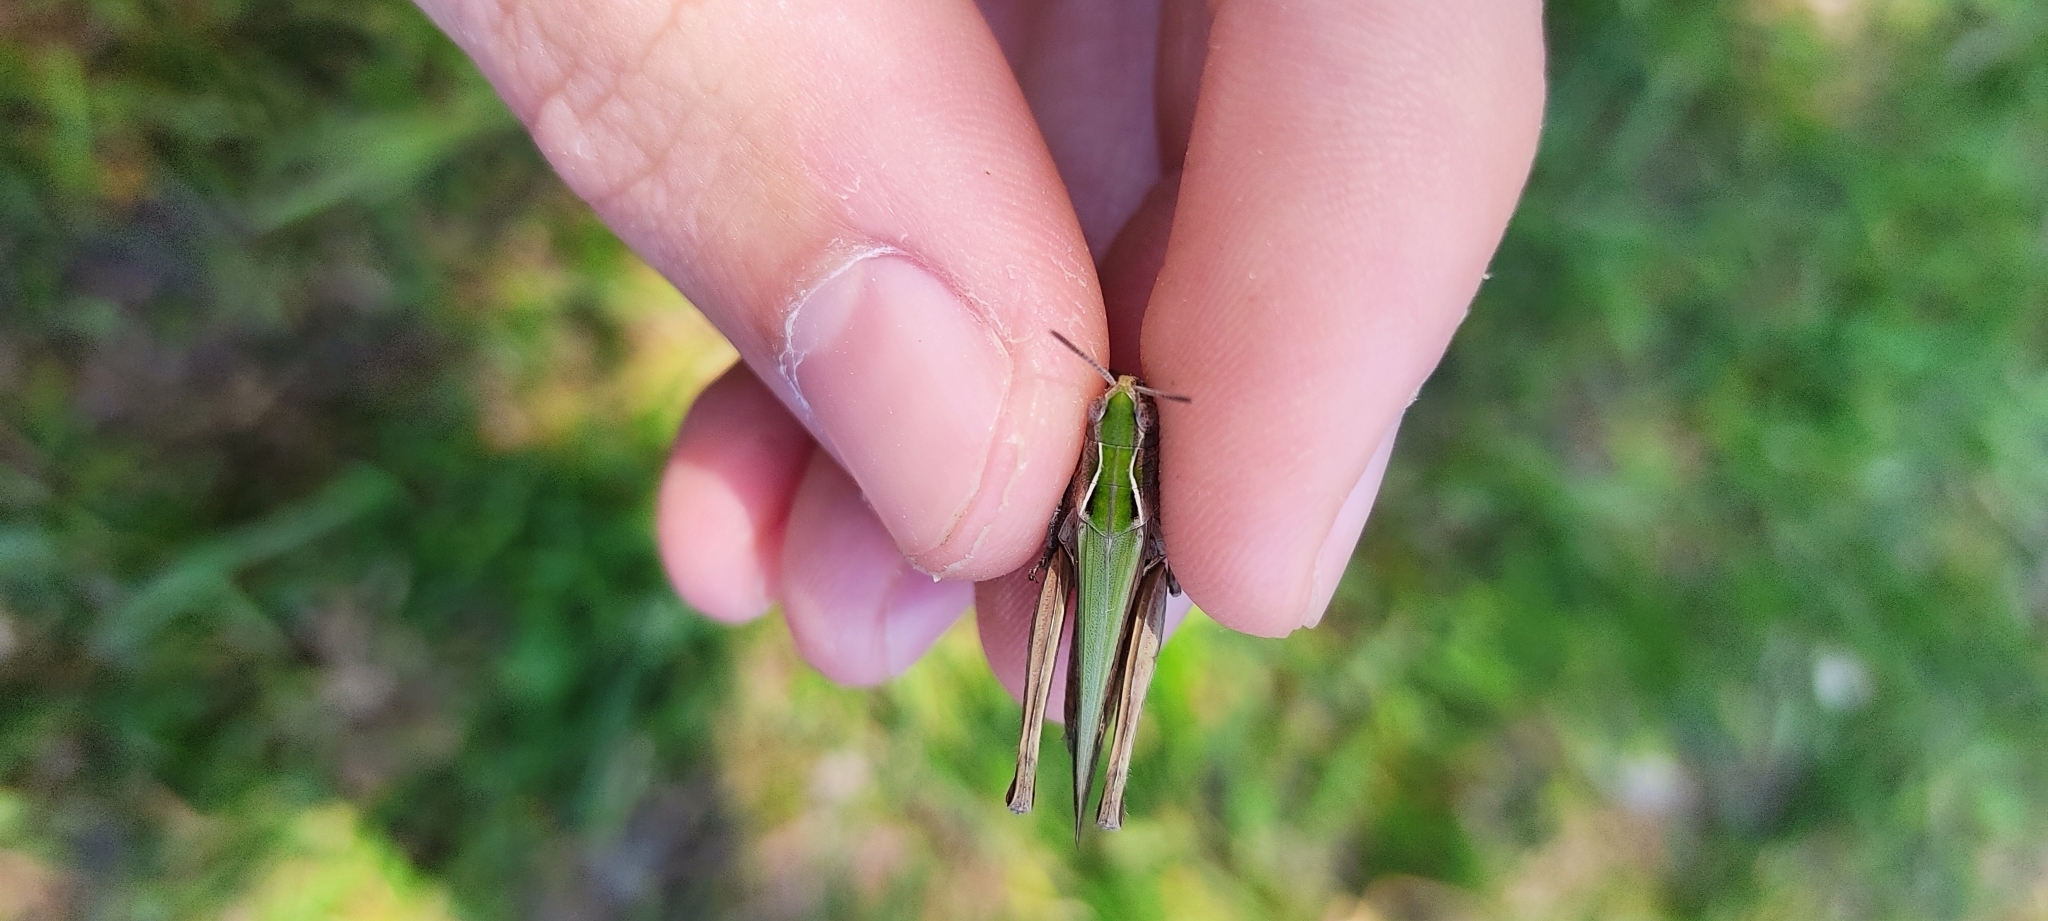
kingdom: Animalia
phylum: Arthropoda
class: Insecta
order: Orthoptera
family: Acrididae
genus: Omocestus
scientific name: Omocestus rufipes
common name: Woodland grasshopper
